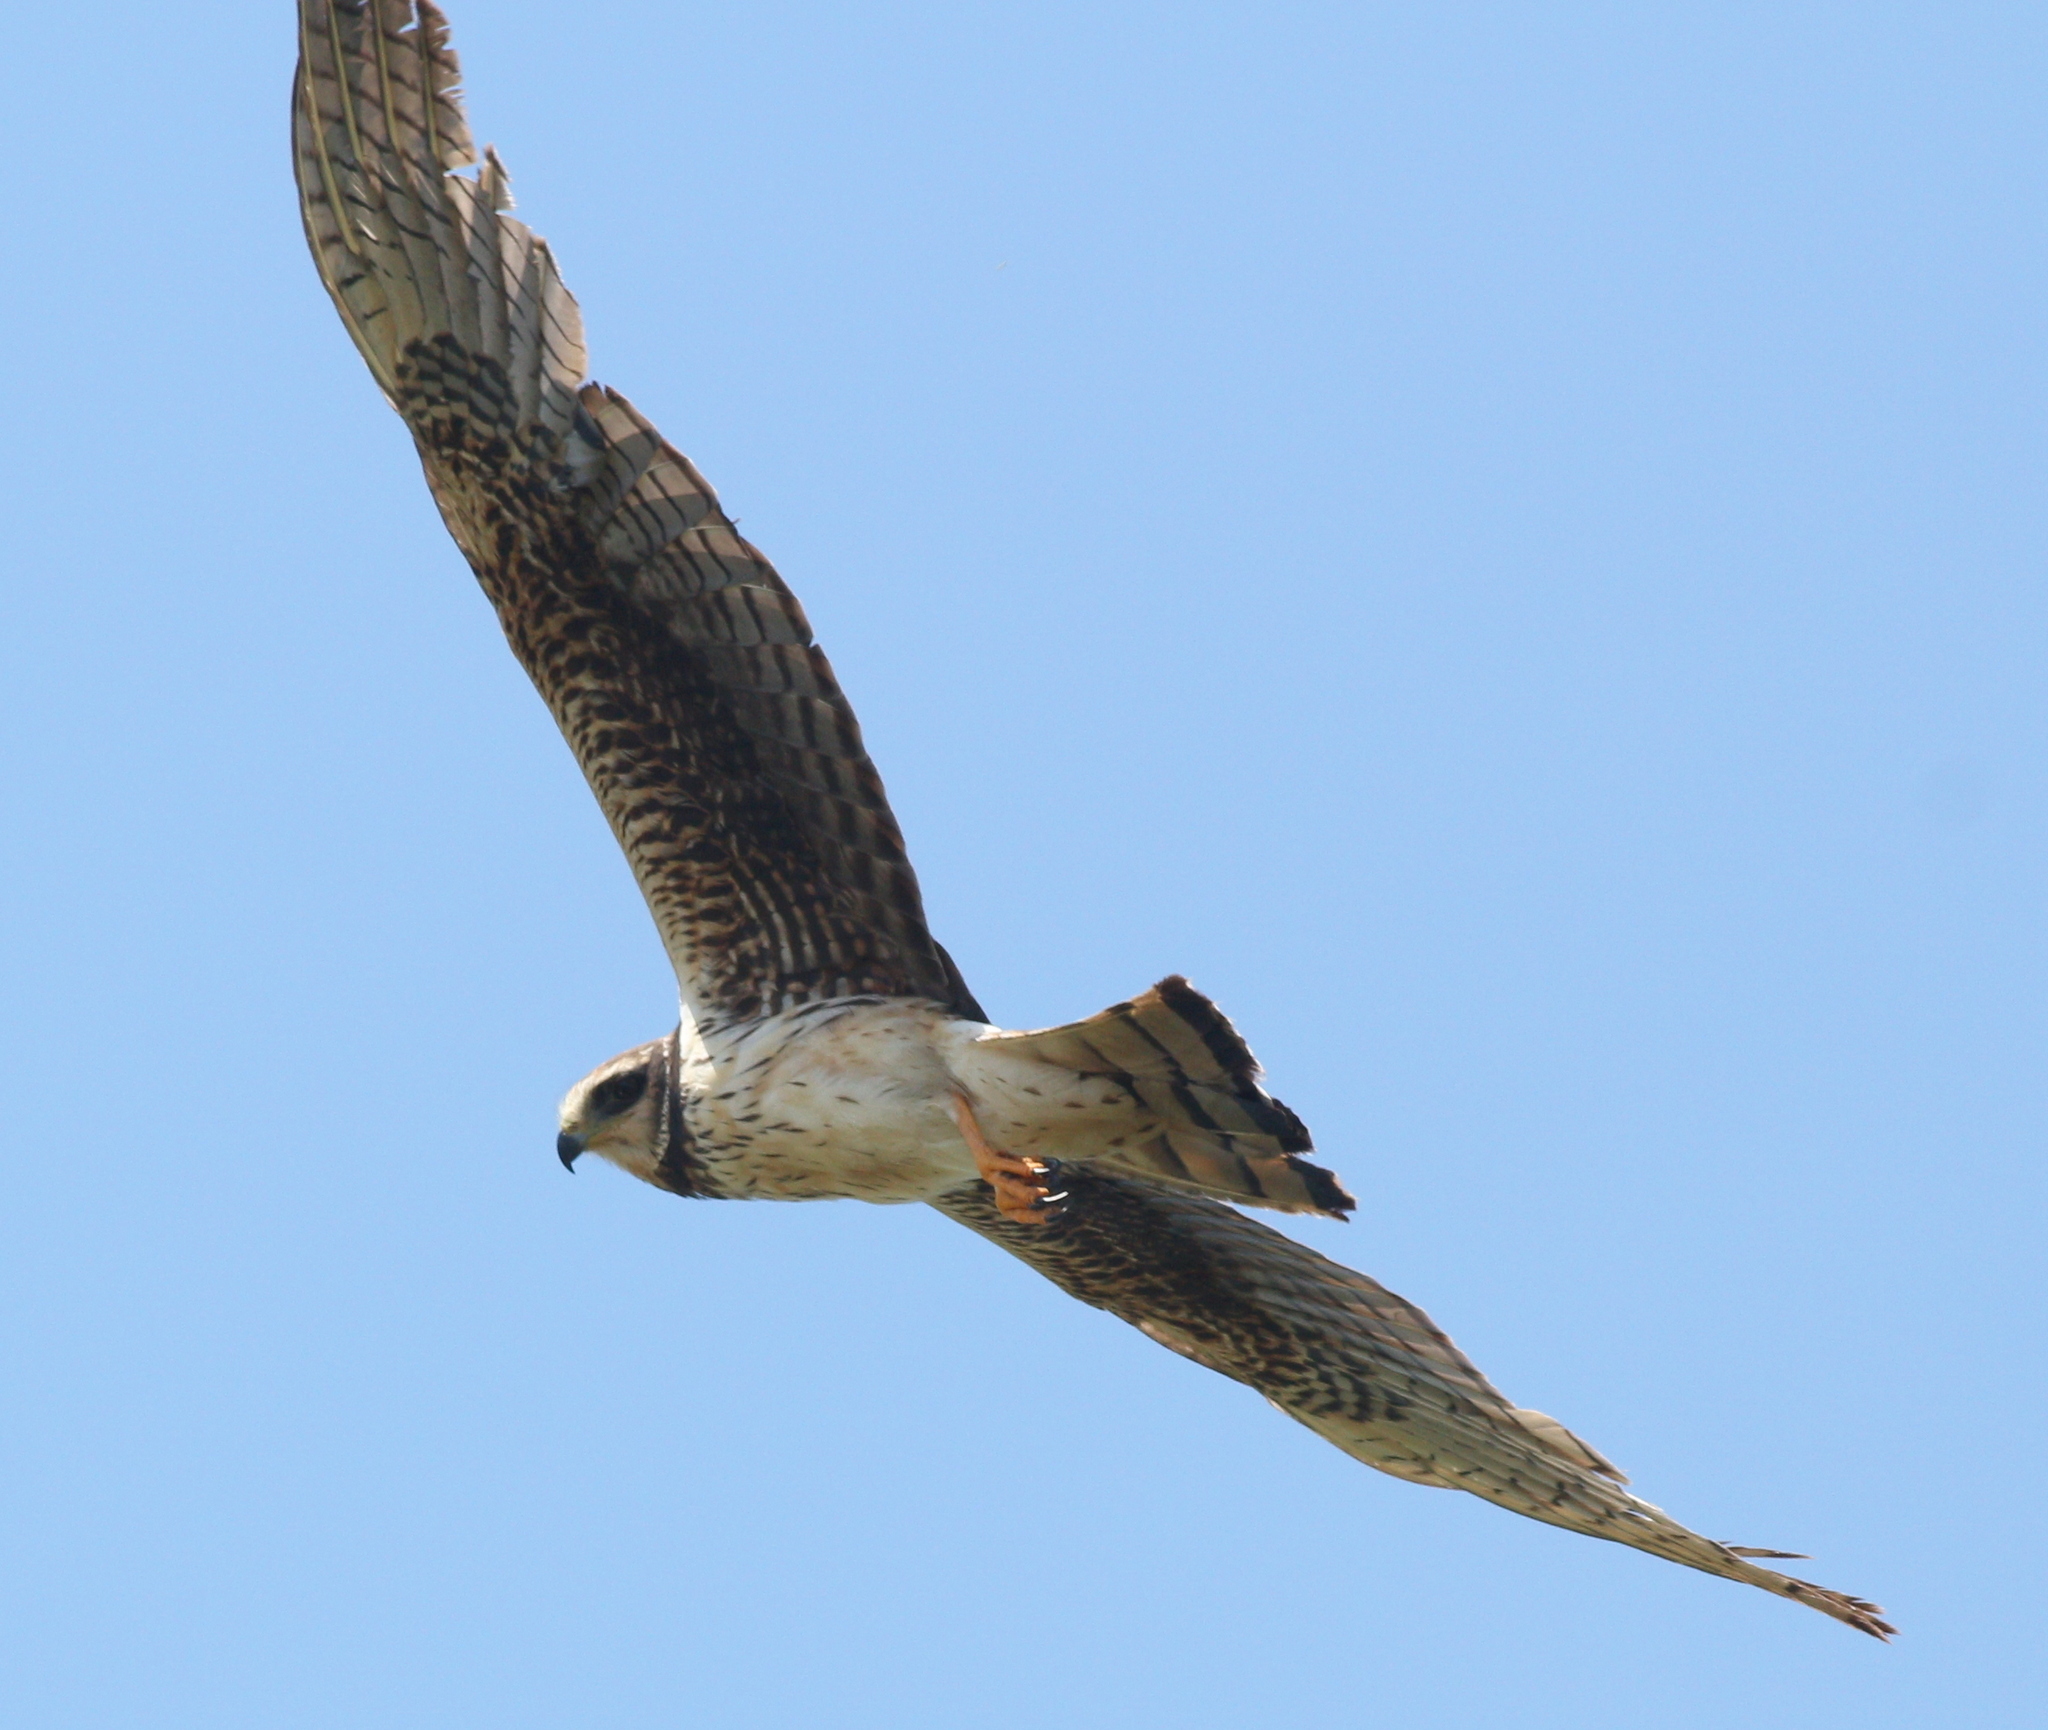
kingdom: Animalia
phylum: Chordata
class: Aves
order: Accipitriformes
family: Accipitridae
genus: Circus
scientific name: Circus buffoni
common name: Long-winged harrier
